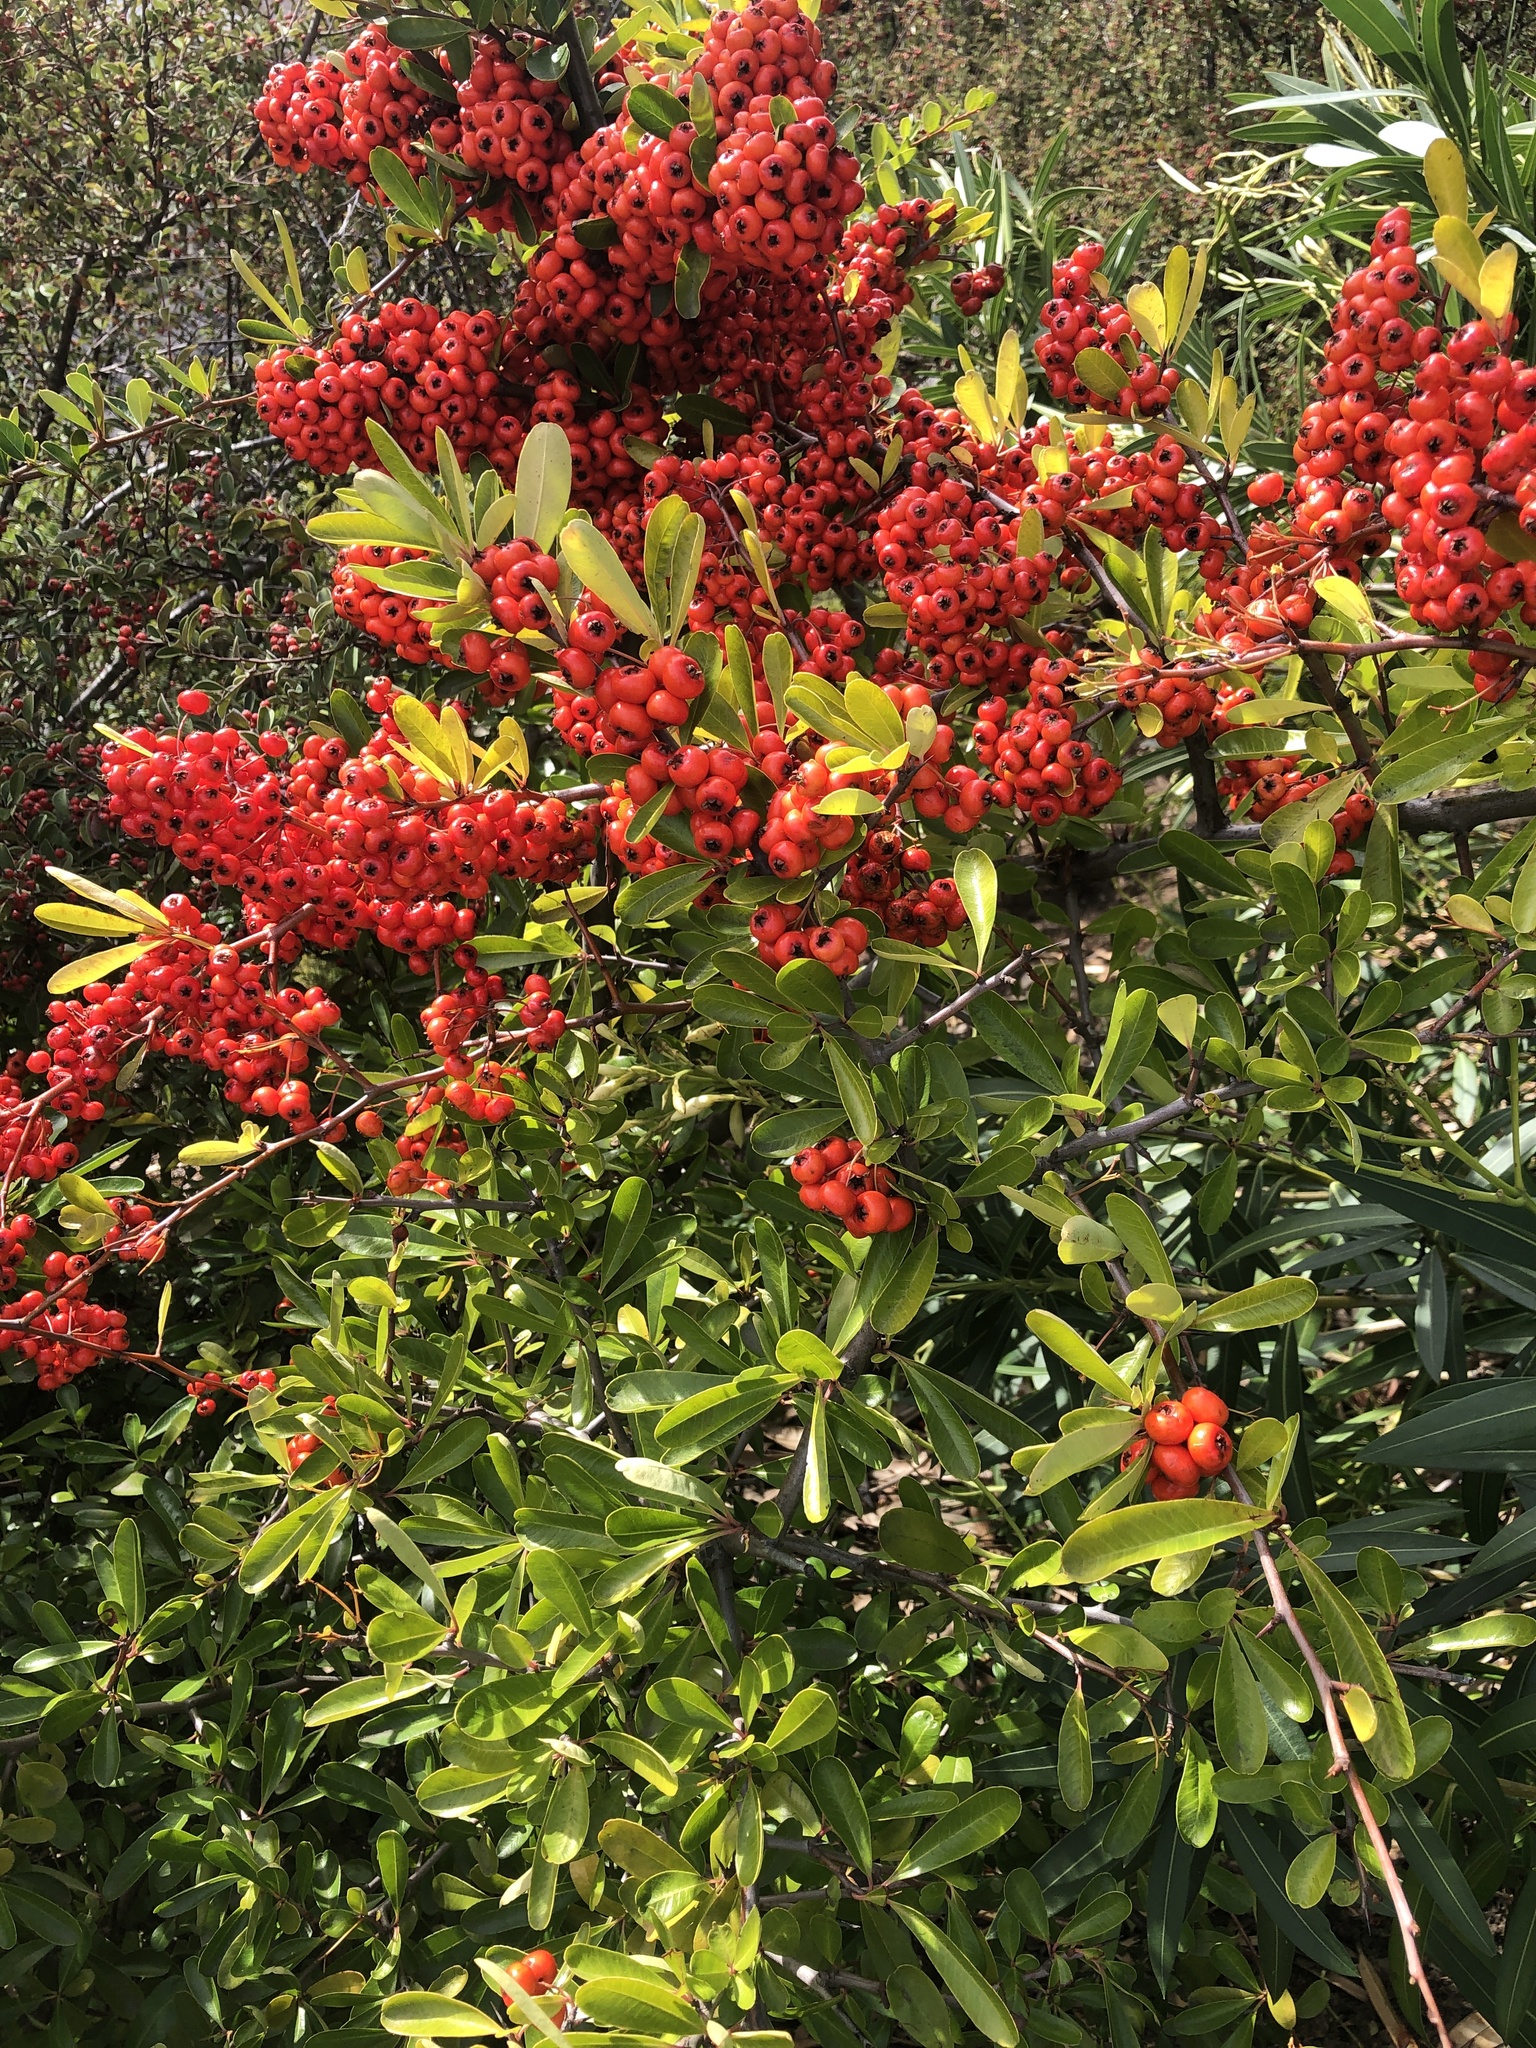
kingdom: Plantae
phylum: Tracheophyta
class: Magnoliopsida
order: Rosales
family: Rosaceae
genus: Heteromeles
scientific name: Heteromeles arbutifolia
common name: California-holly
